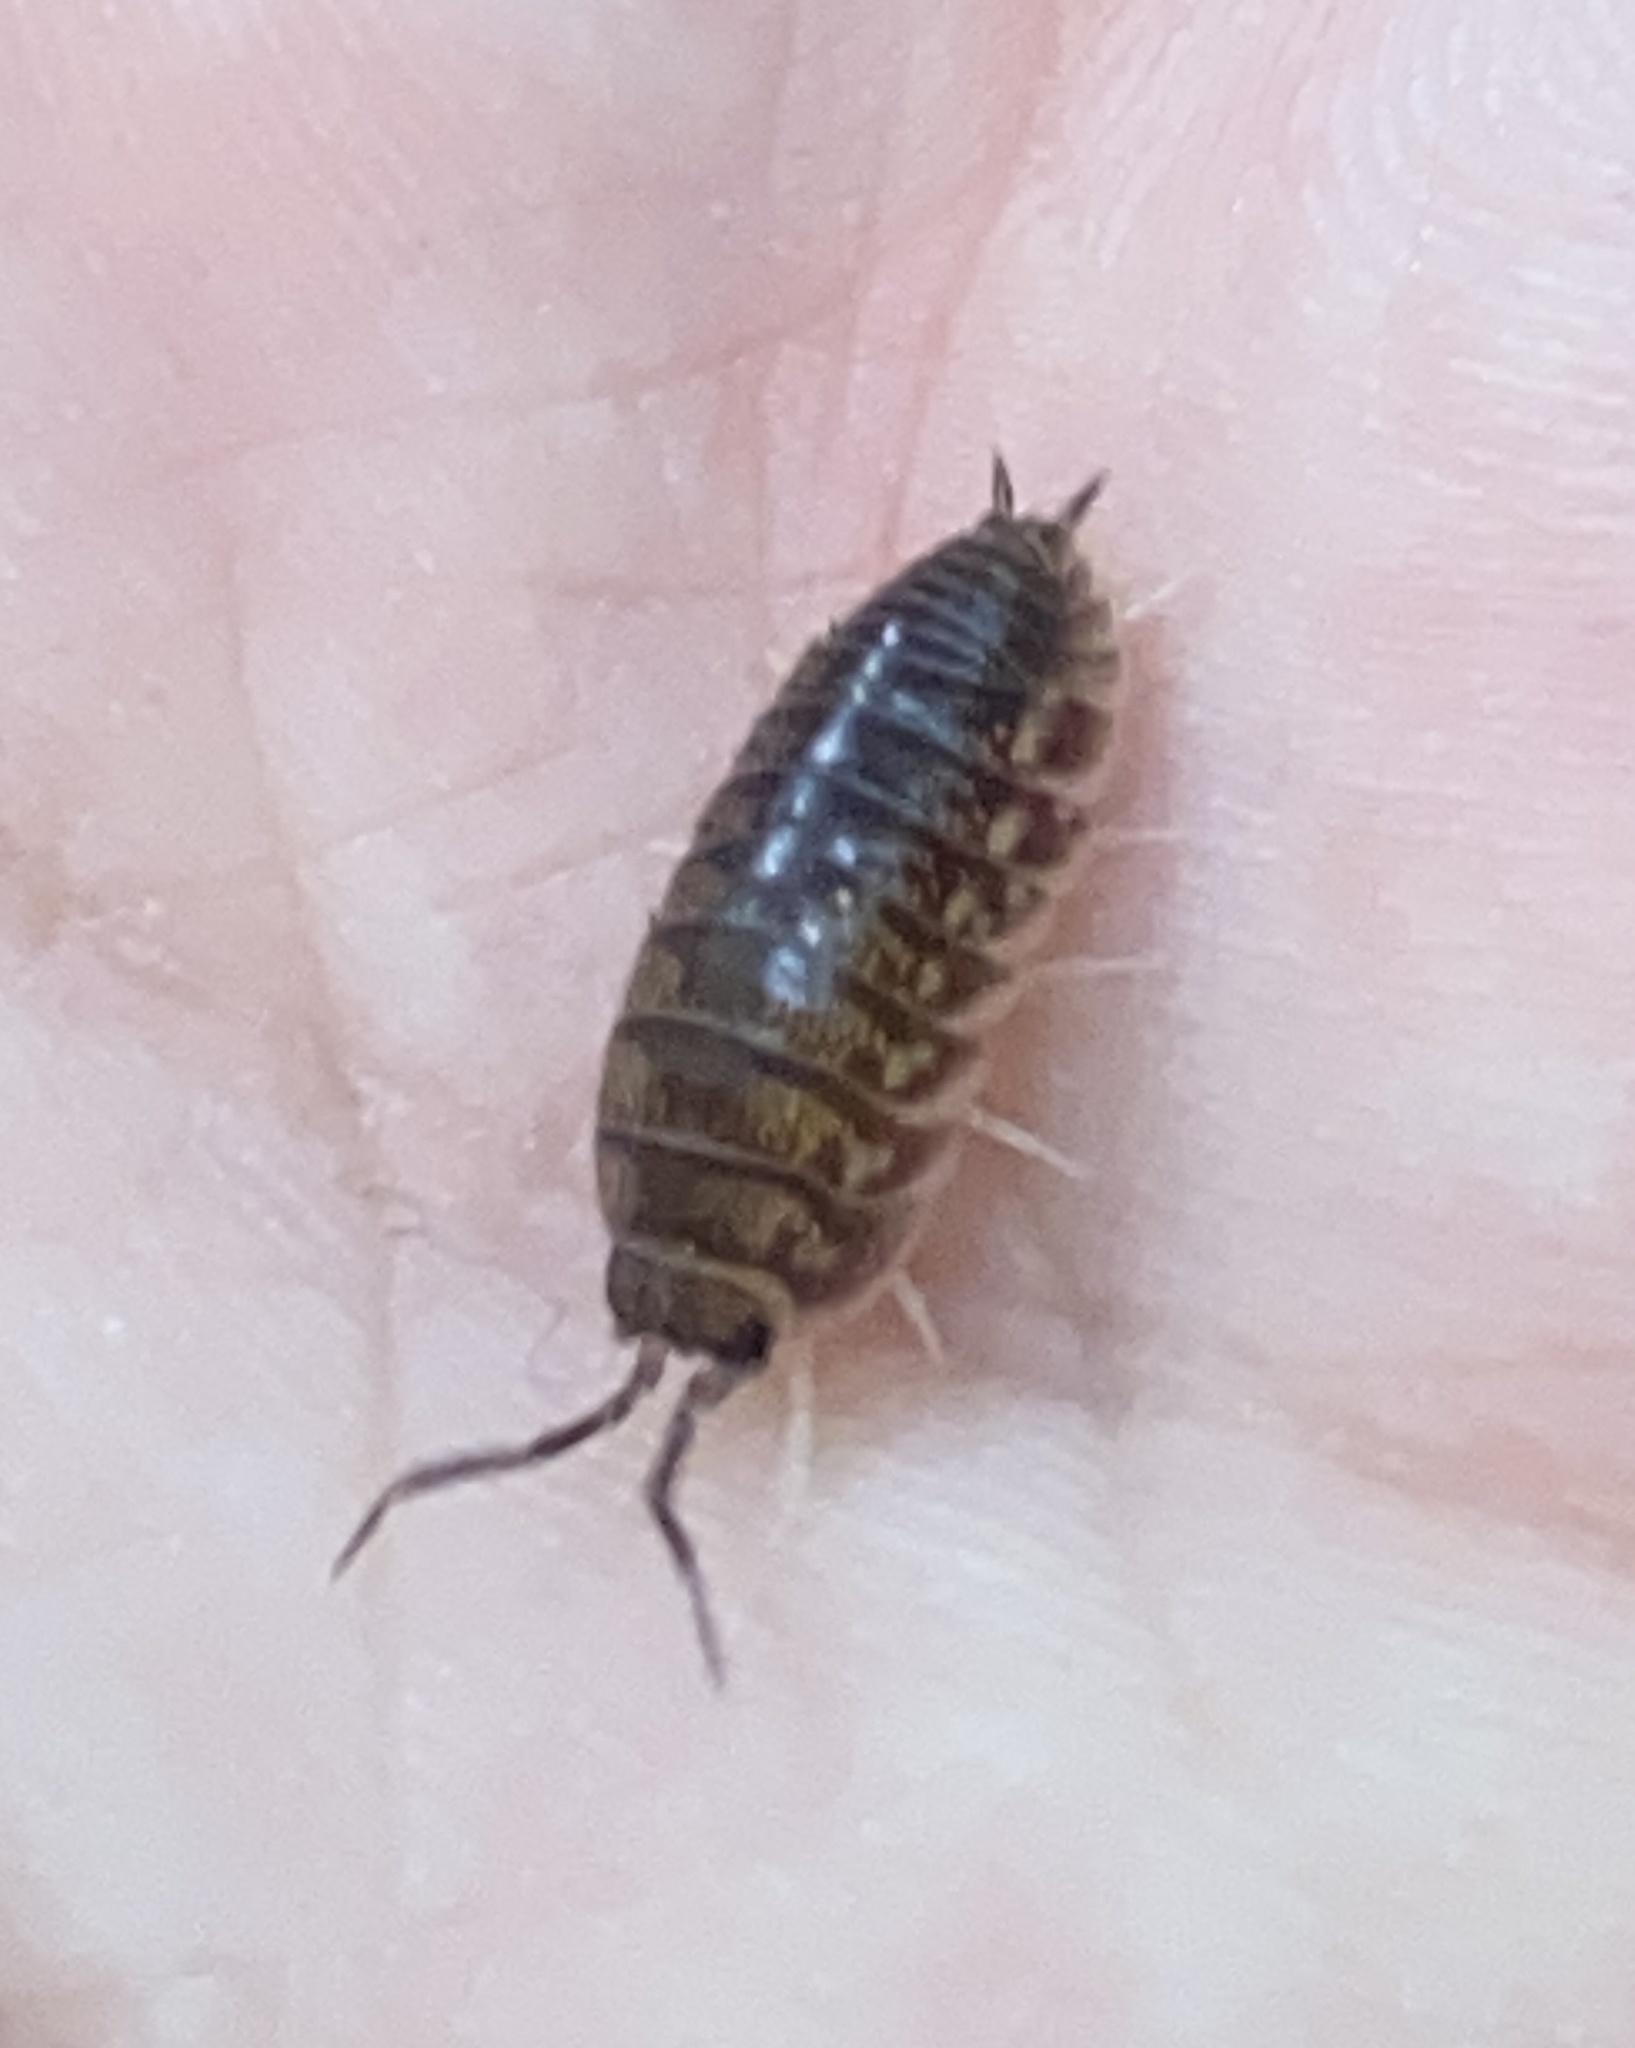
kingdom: Animalia
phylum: Arthropoda
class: Malacostraca
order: Isopoda
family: Cylisticidae
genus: Cylisticus
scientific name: Cylisticus convexus
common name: Curly woodlouse
